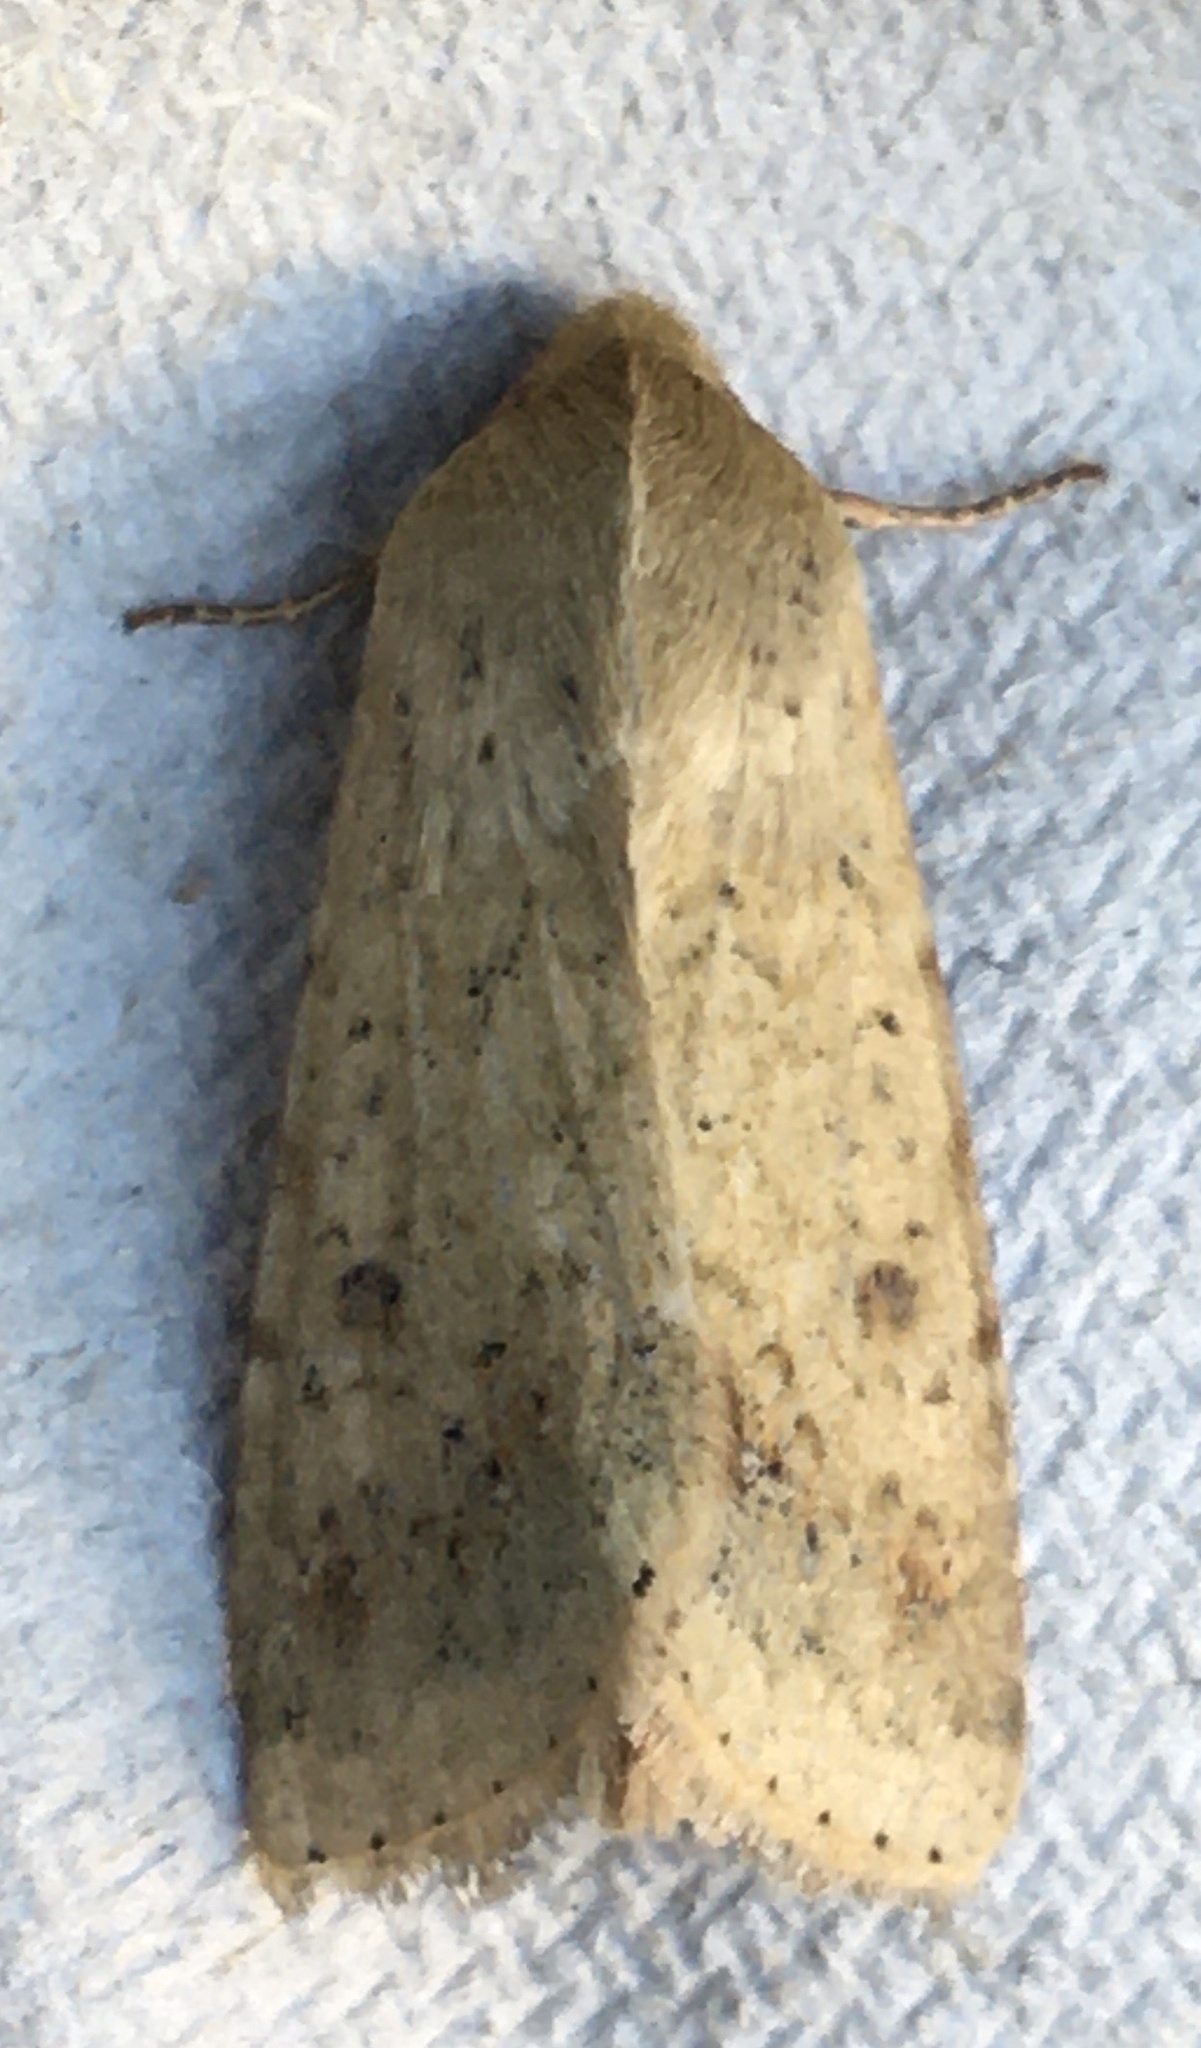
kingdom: Animalia
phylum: Arthropoda
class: Insecta
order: Lepidoptera
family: Noctuidae
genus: Helicoverpa
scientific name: Helicoverpa armigera
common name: Cotton bollworm
